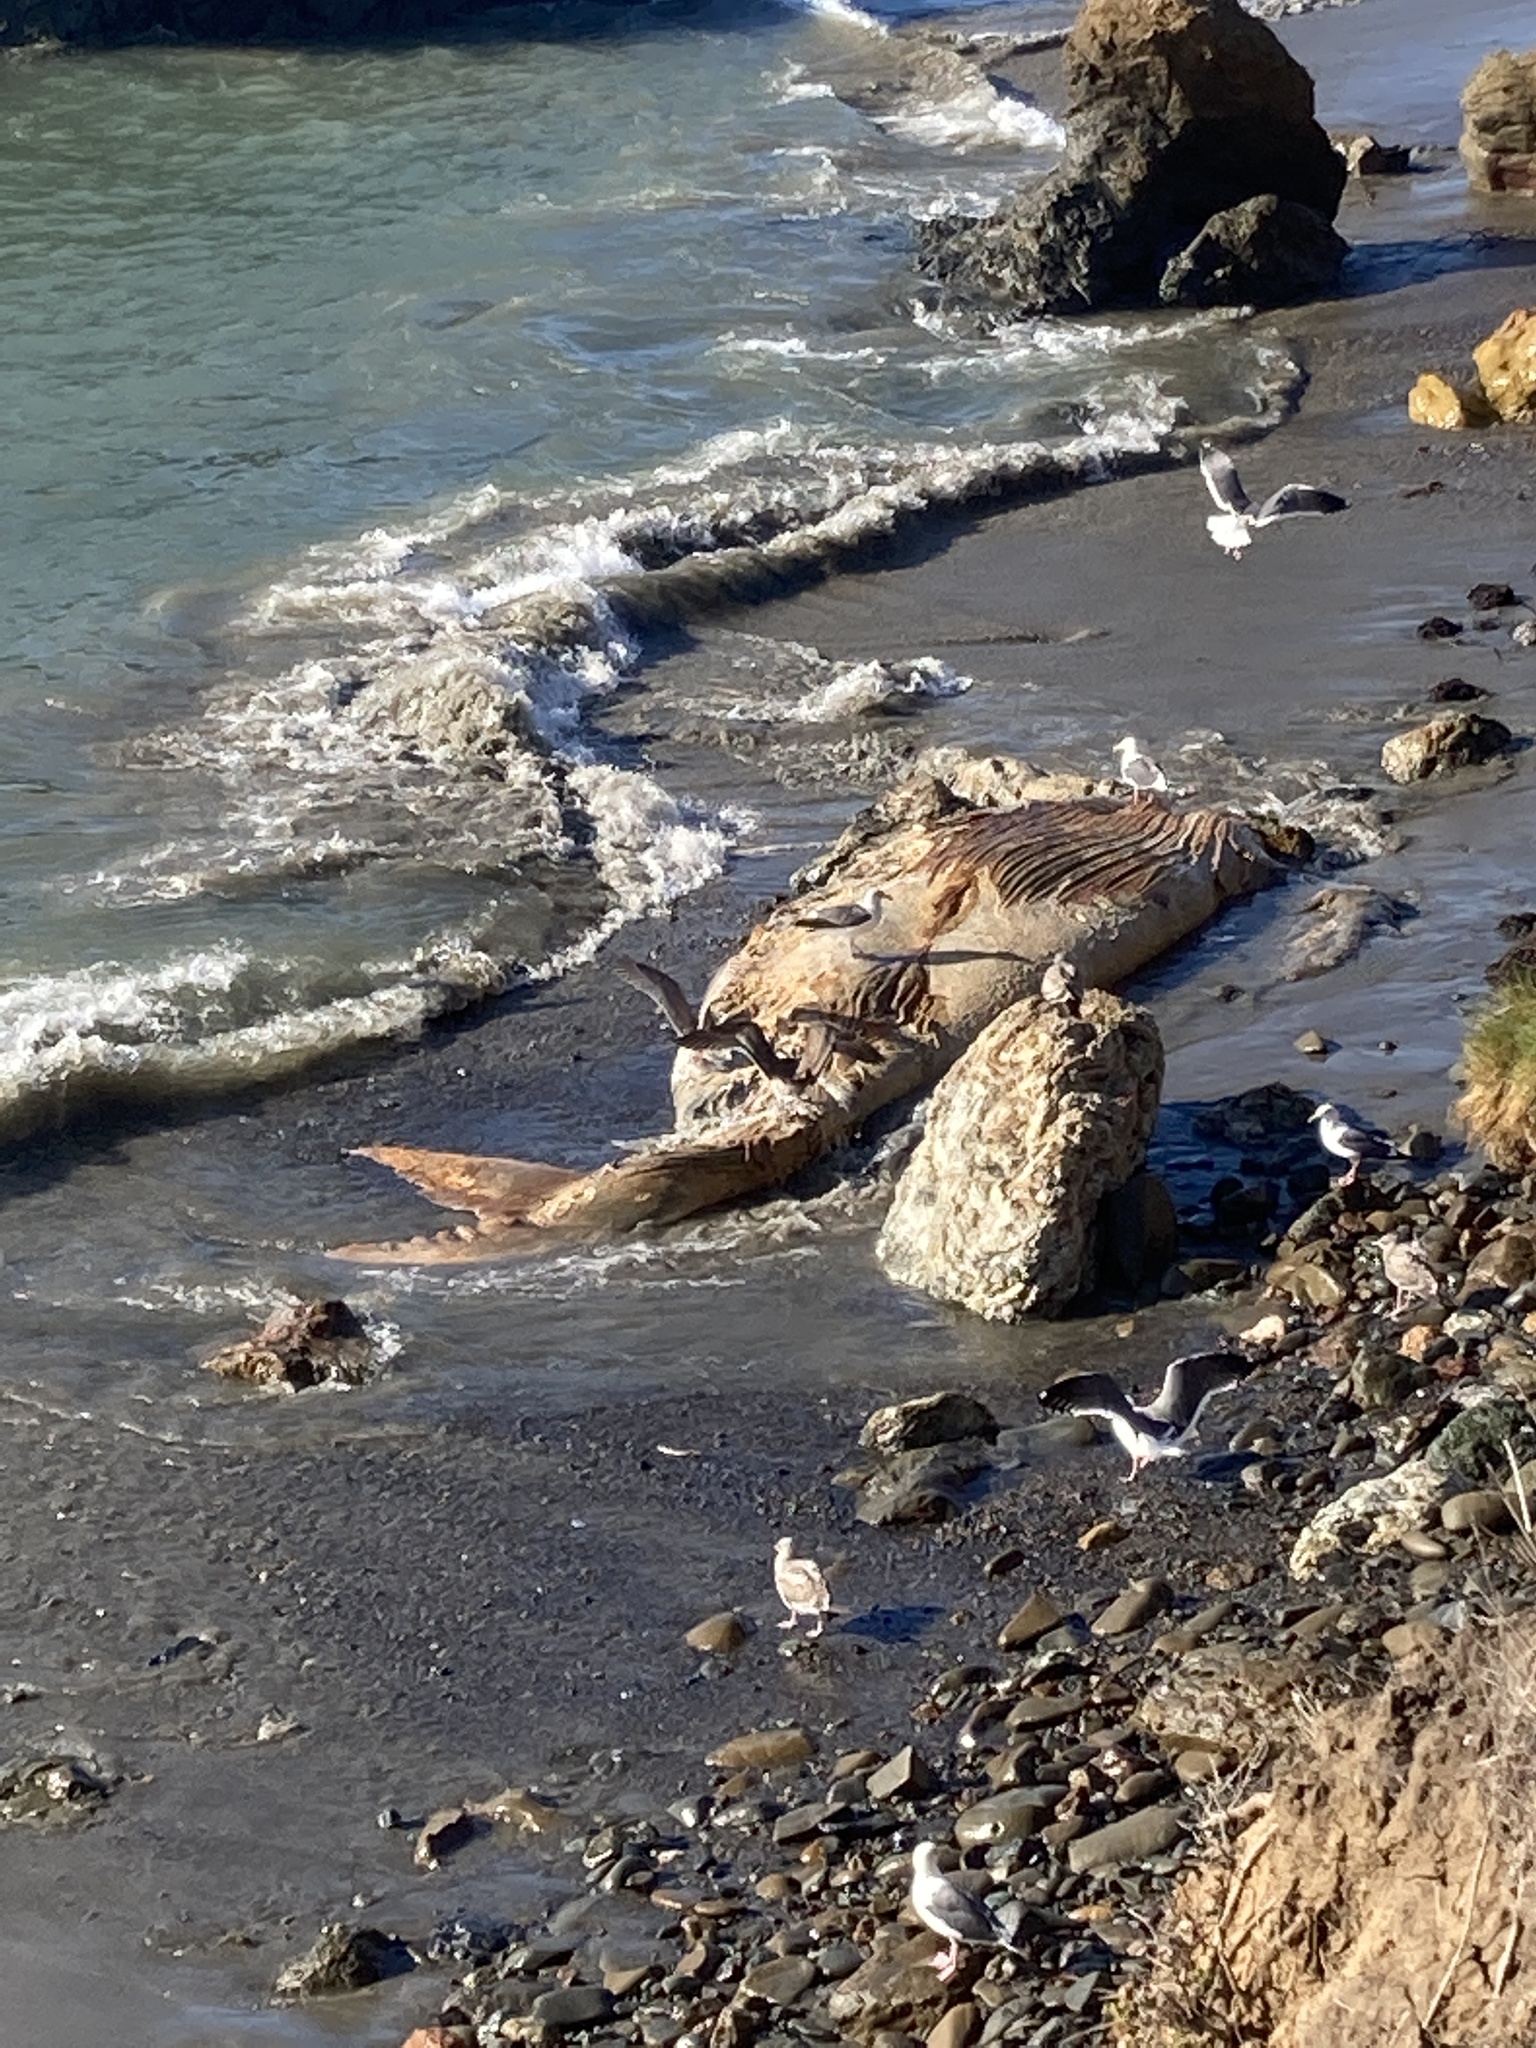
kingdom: Animalia
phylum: Chordata
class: Aves
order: Charadriiformes
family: Laridae
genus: Larus
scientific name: Larus occidentalis
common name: Western gull
